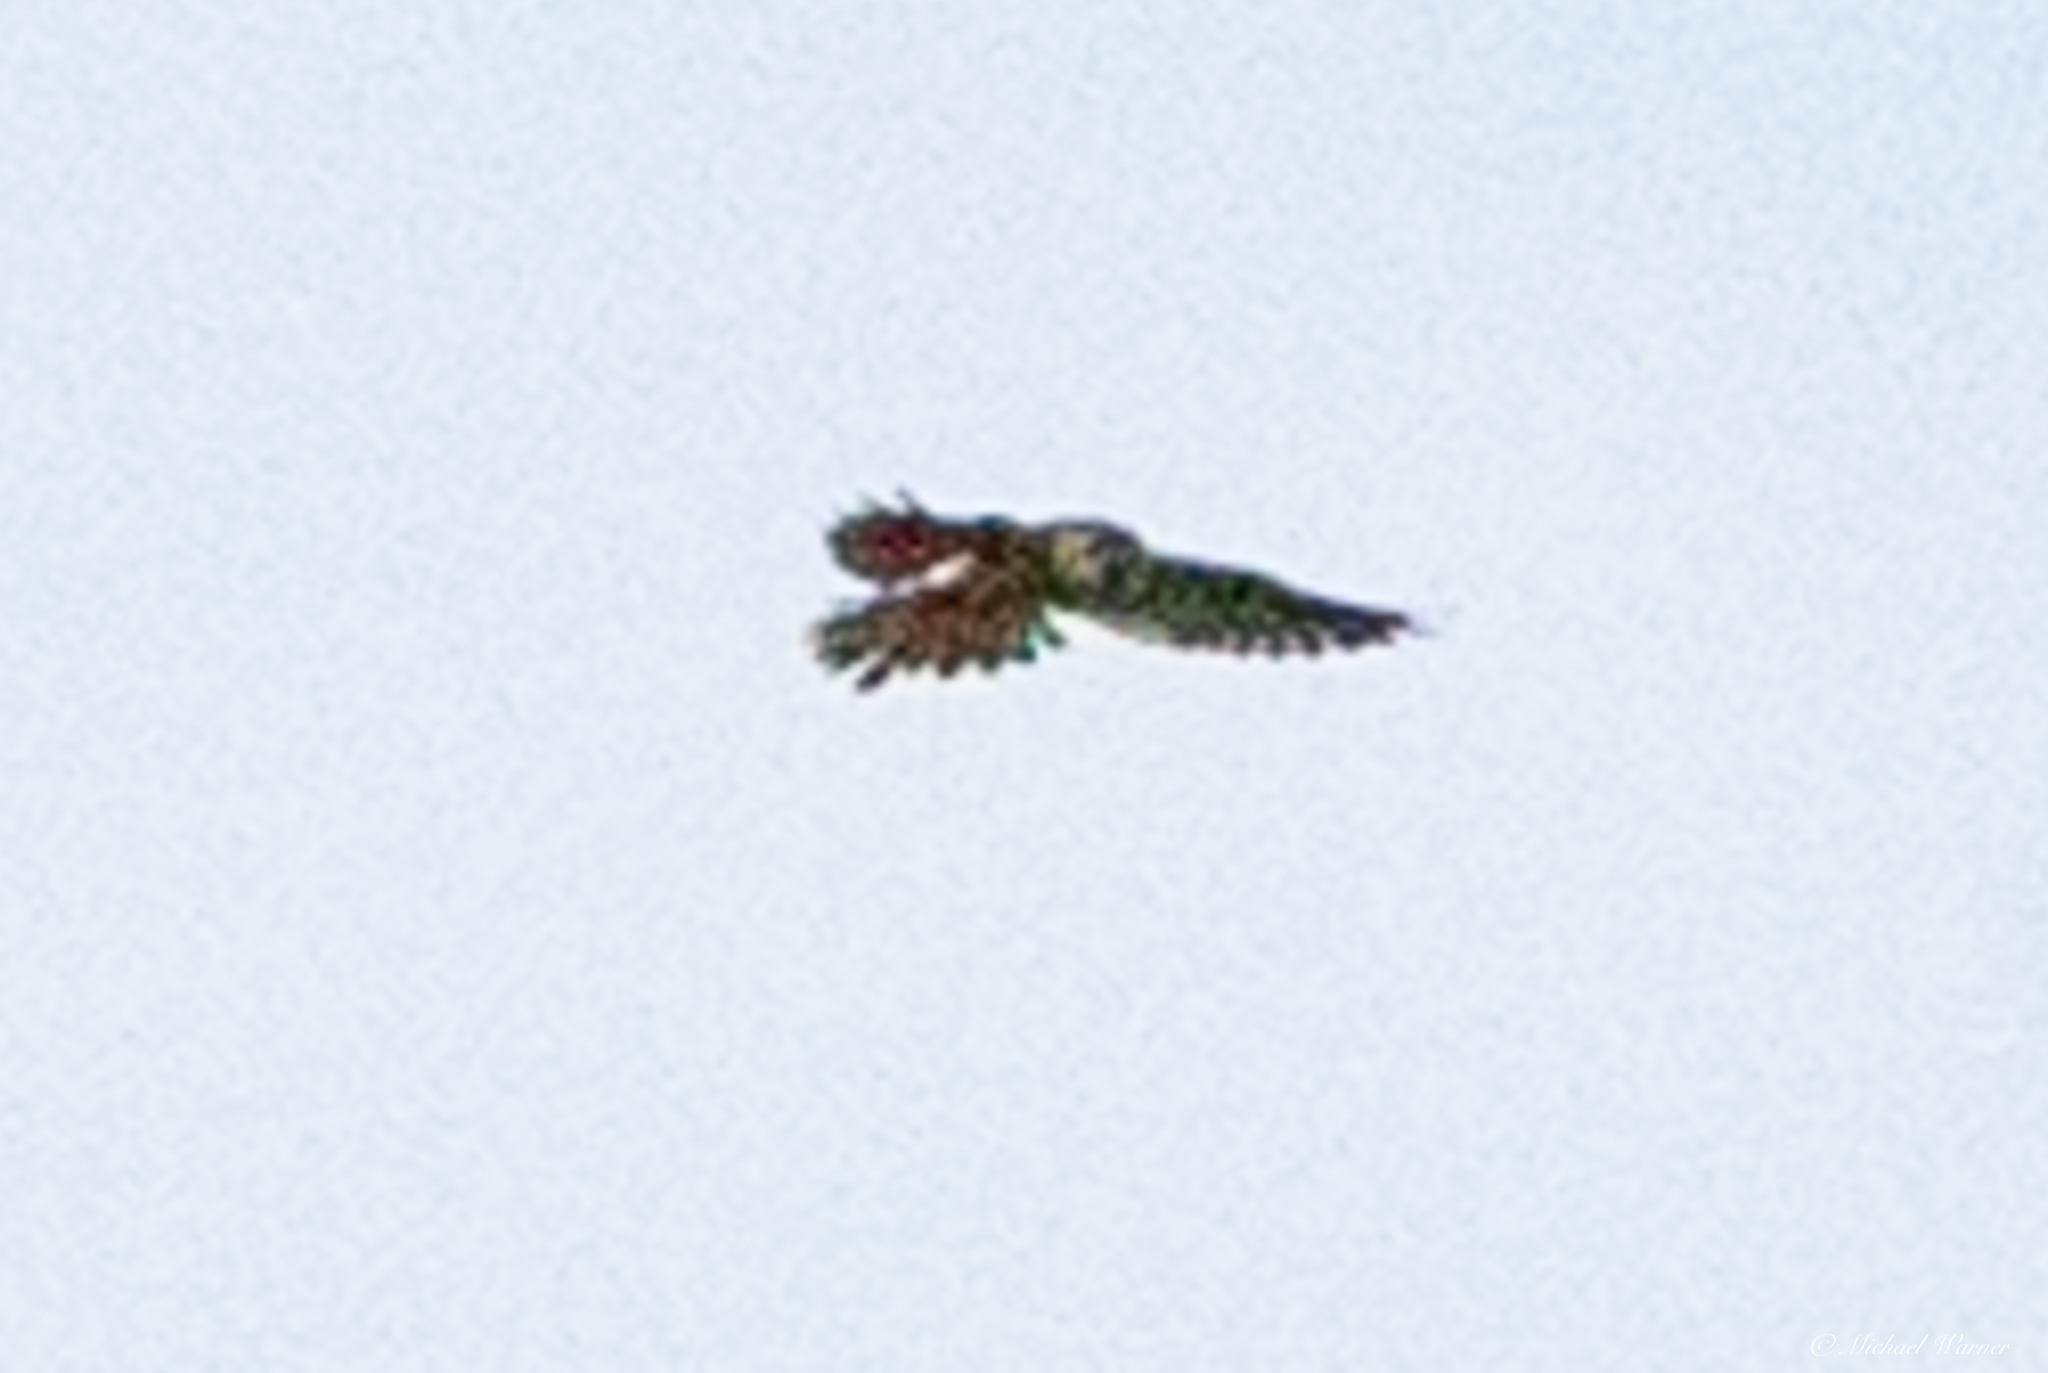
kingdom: Animalia
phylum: Chordata
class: Aves
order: Falconiformes
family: Falconidae
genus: Falco
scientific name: Falco sparverius
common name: American kestrel
